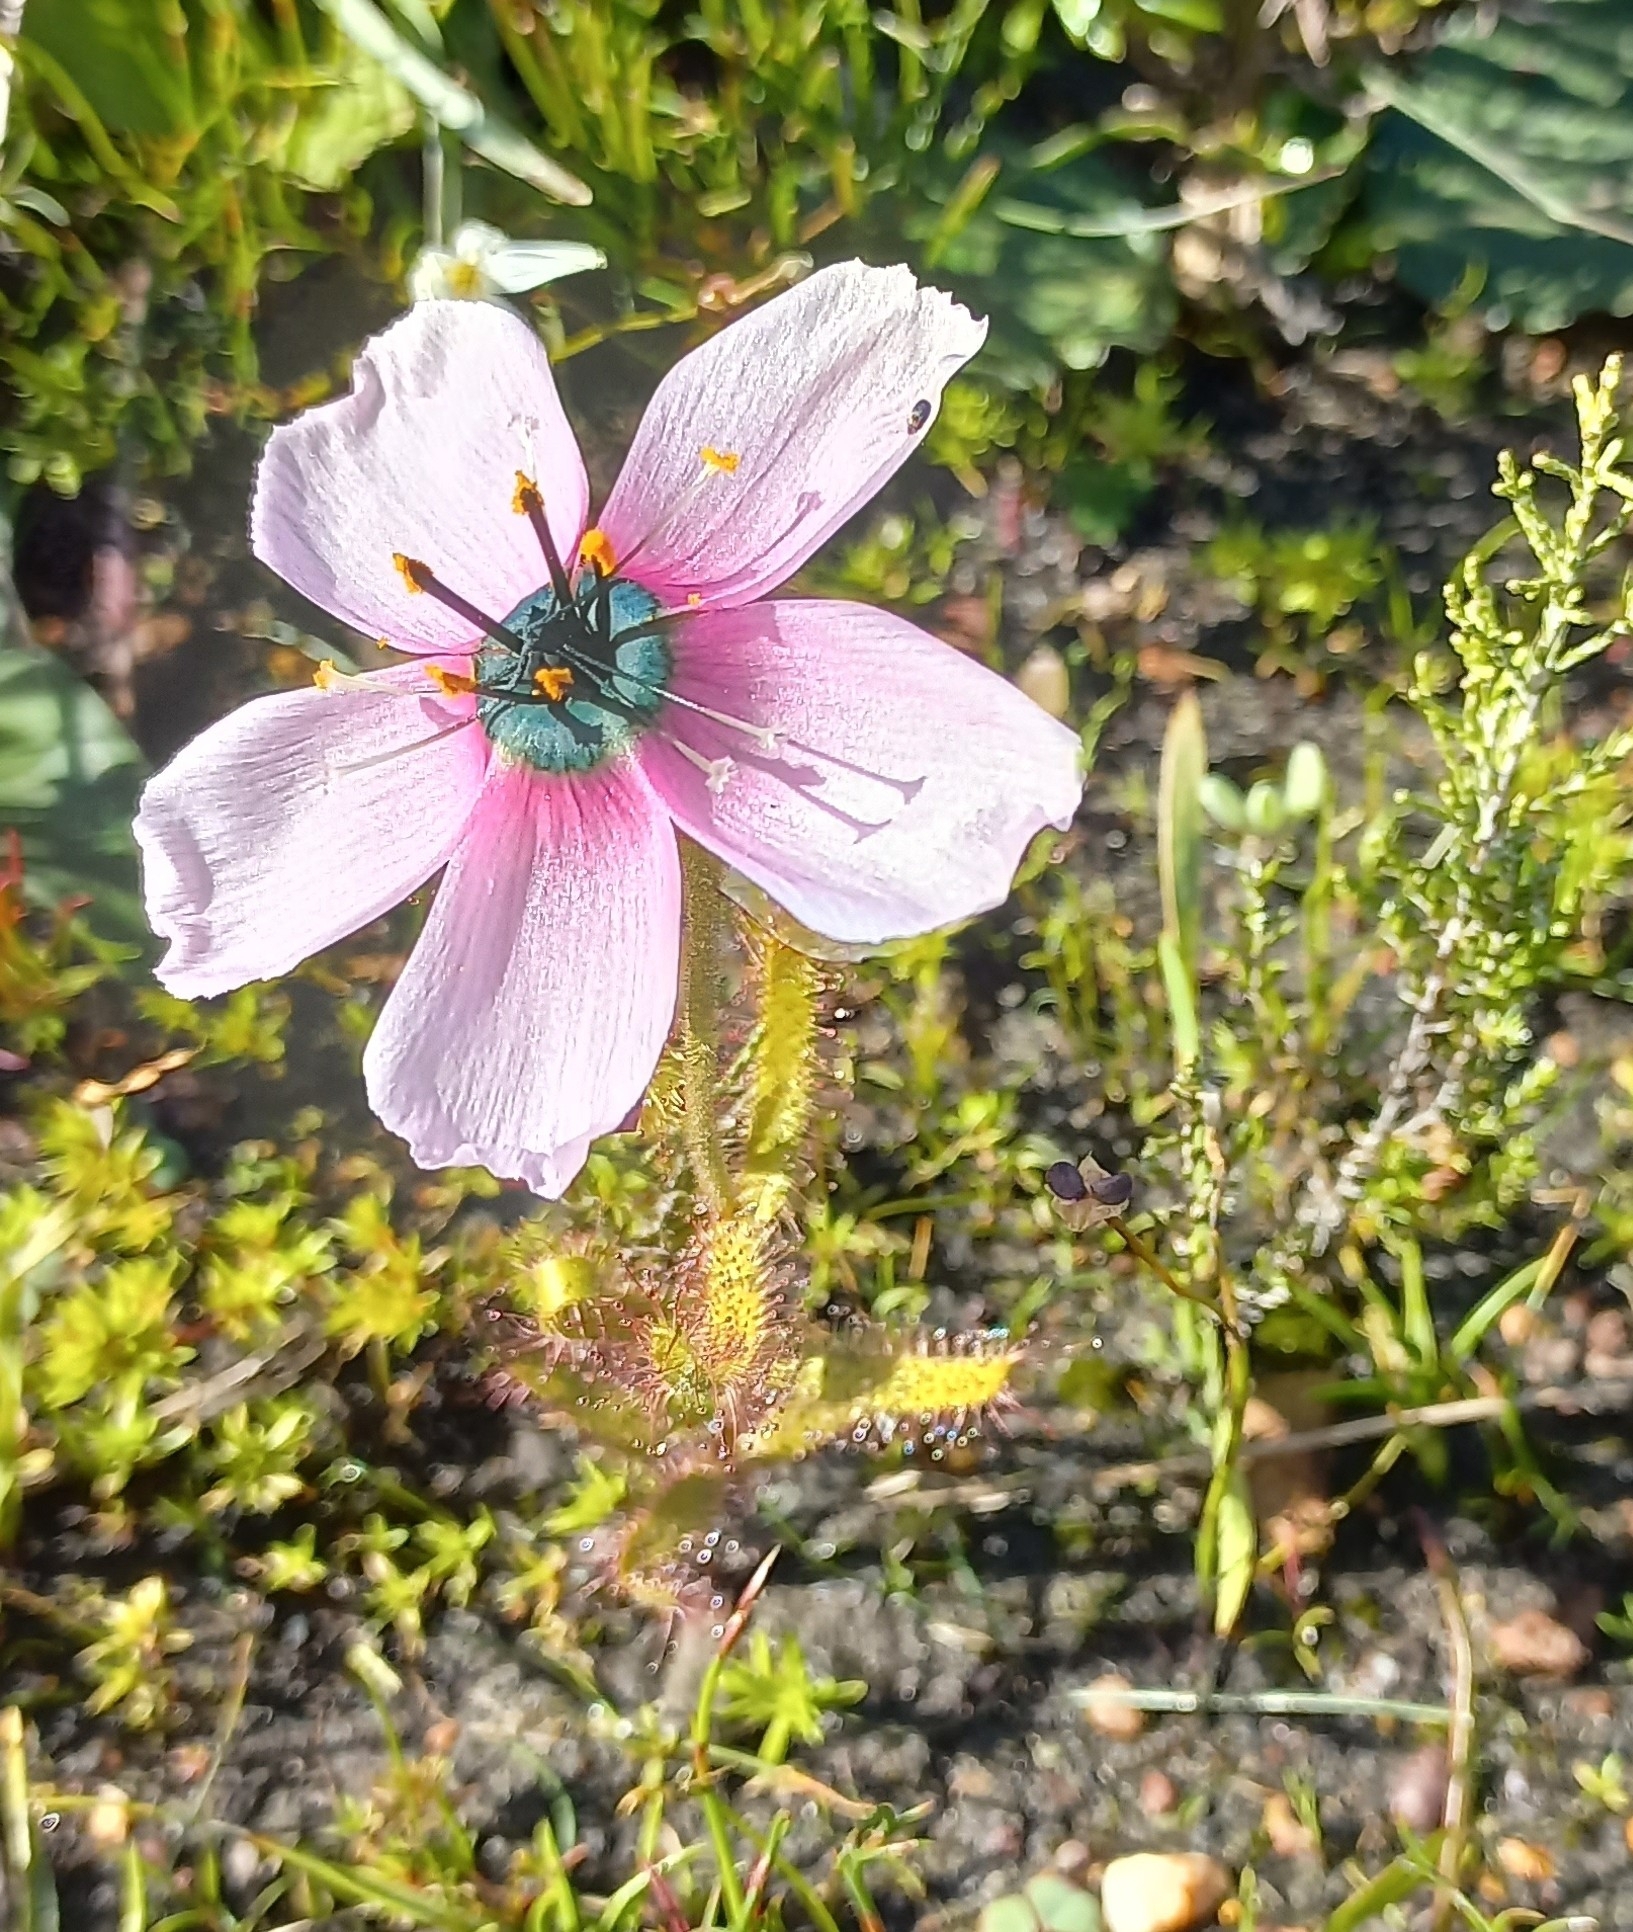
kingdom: Plantae
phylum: Tracheophyta
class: Magnoliopsida
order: Caryophyllales
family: Droseraceae
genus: Drosera
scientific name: Drosera cistiflora
